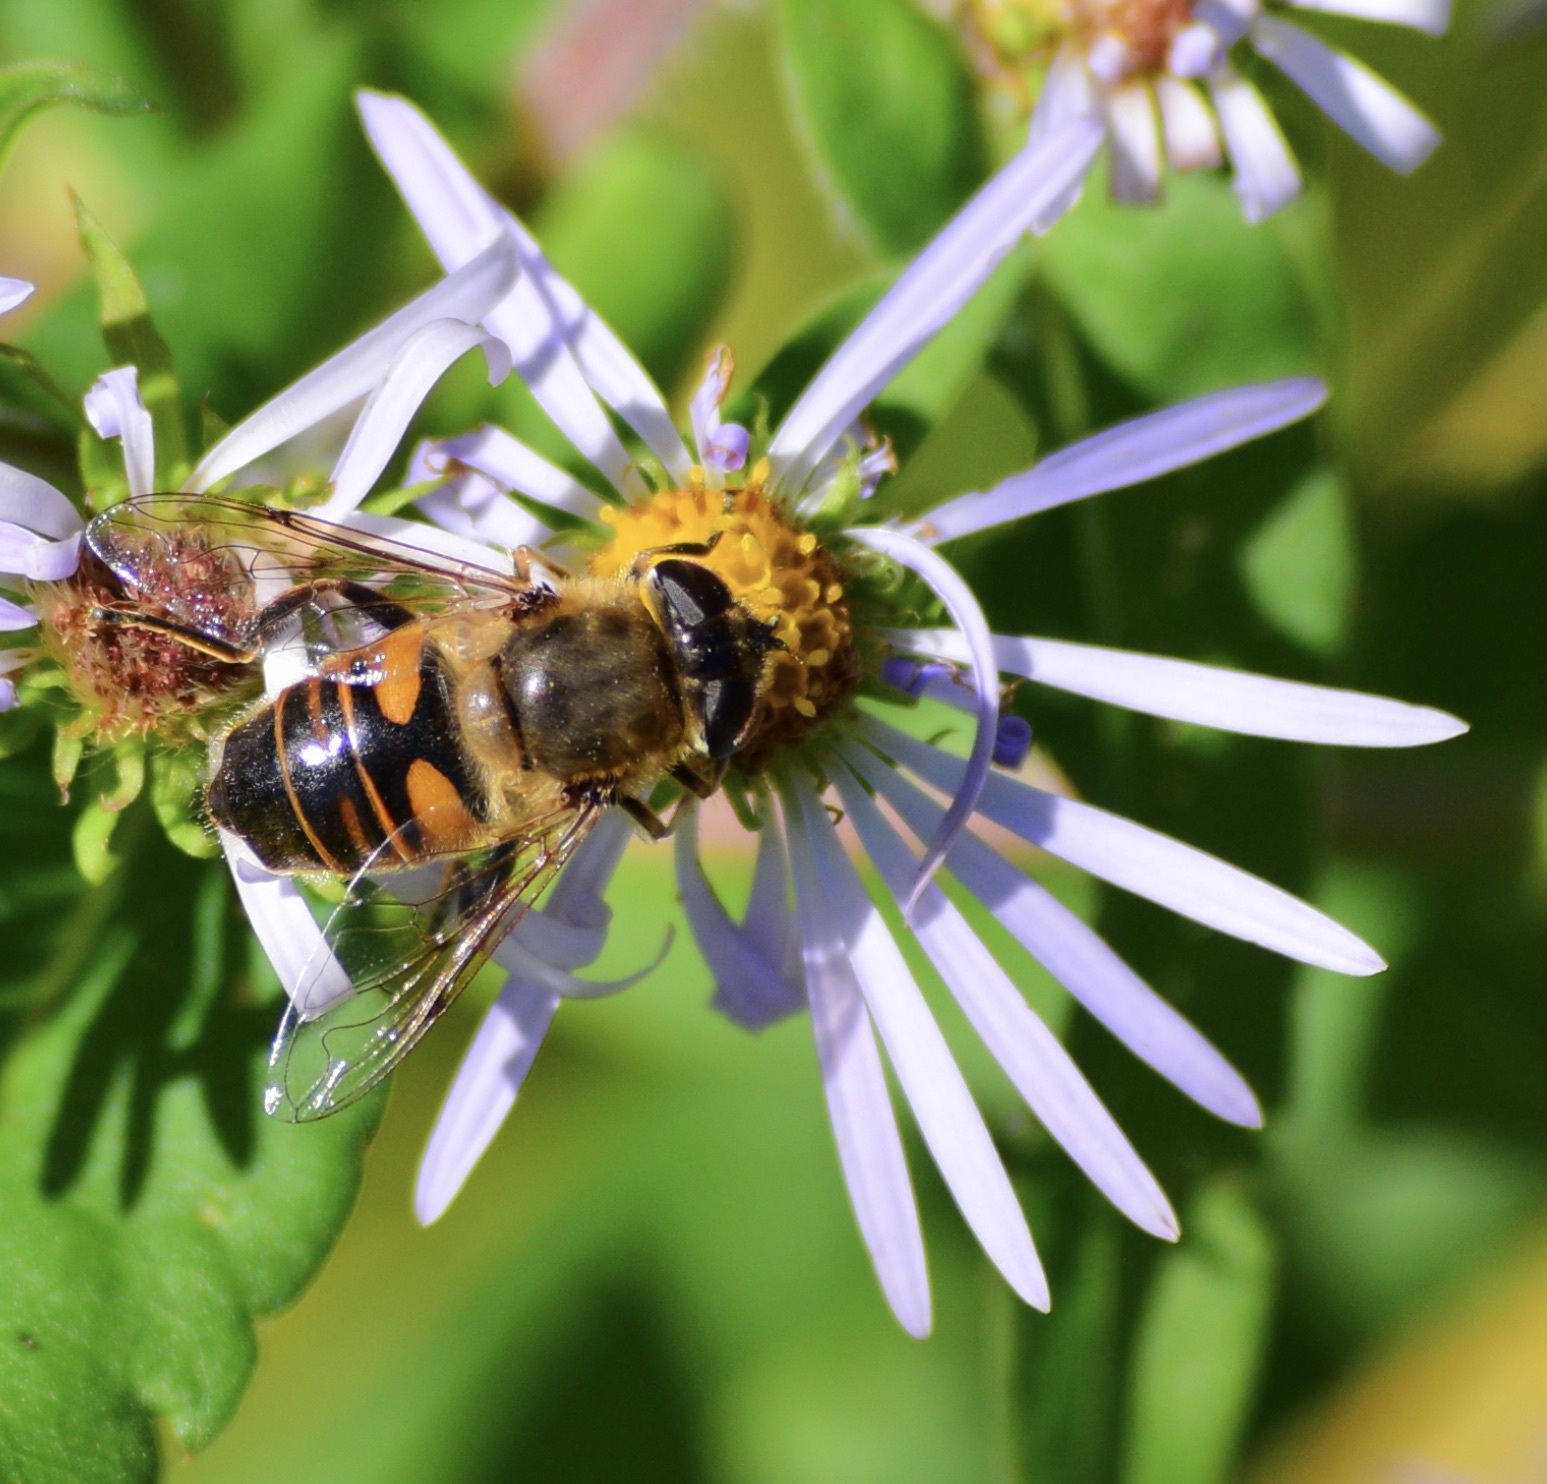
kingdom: Animalia
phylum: Arthropoda
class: Insecta
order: Diptera
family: Syrphidae
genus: Eristalis
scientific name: Eristalis tenax
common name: Drone fly
